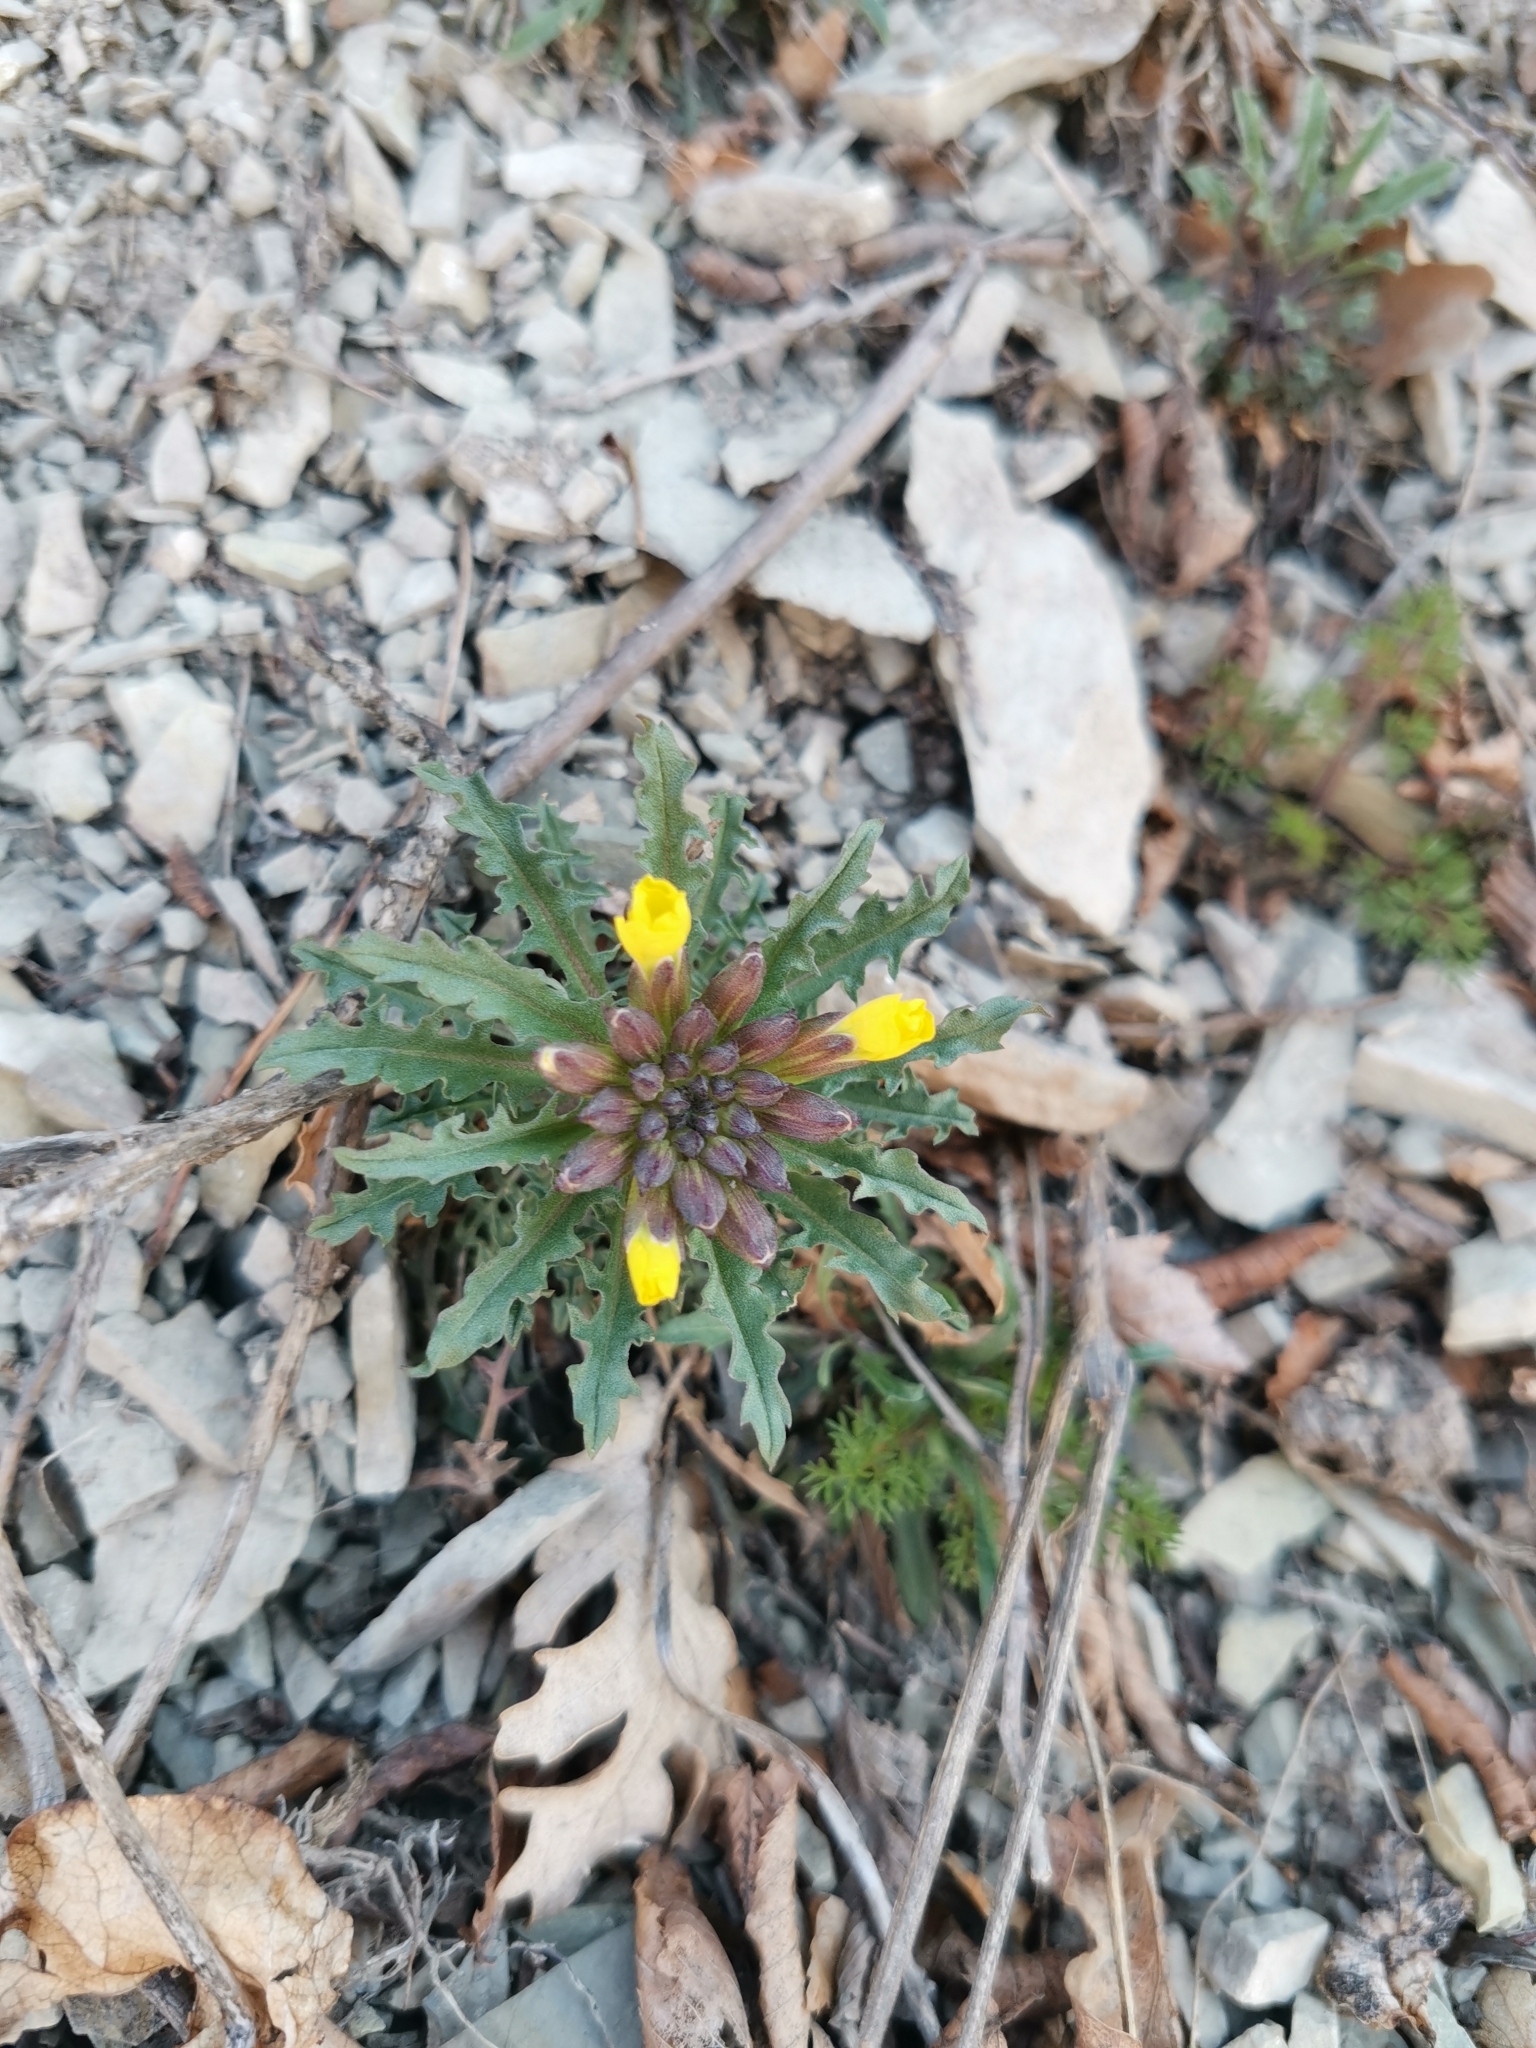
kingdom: Plantae
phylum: Tracheophyta
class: Magnoliopsida
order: Brassicales
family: Brassicaceae
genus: Erysimum
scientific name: Erysimum callicarpum
